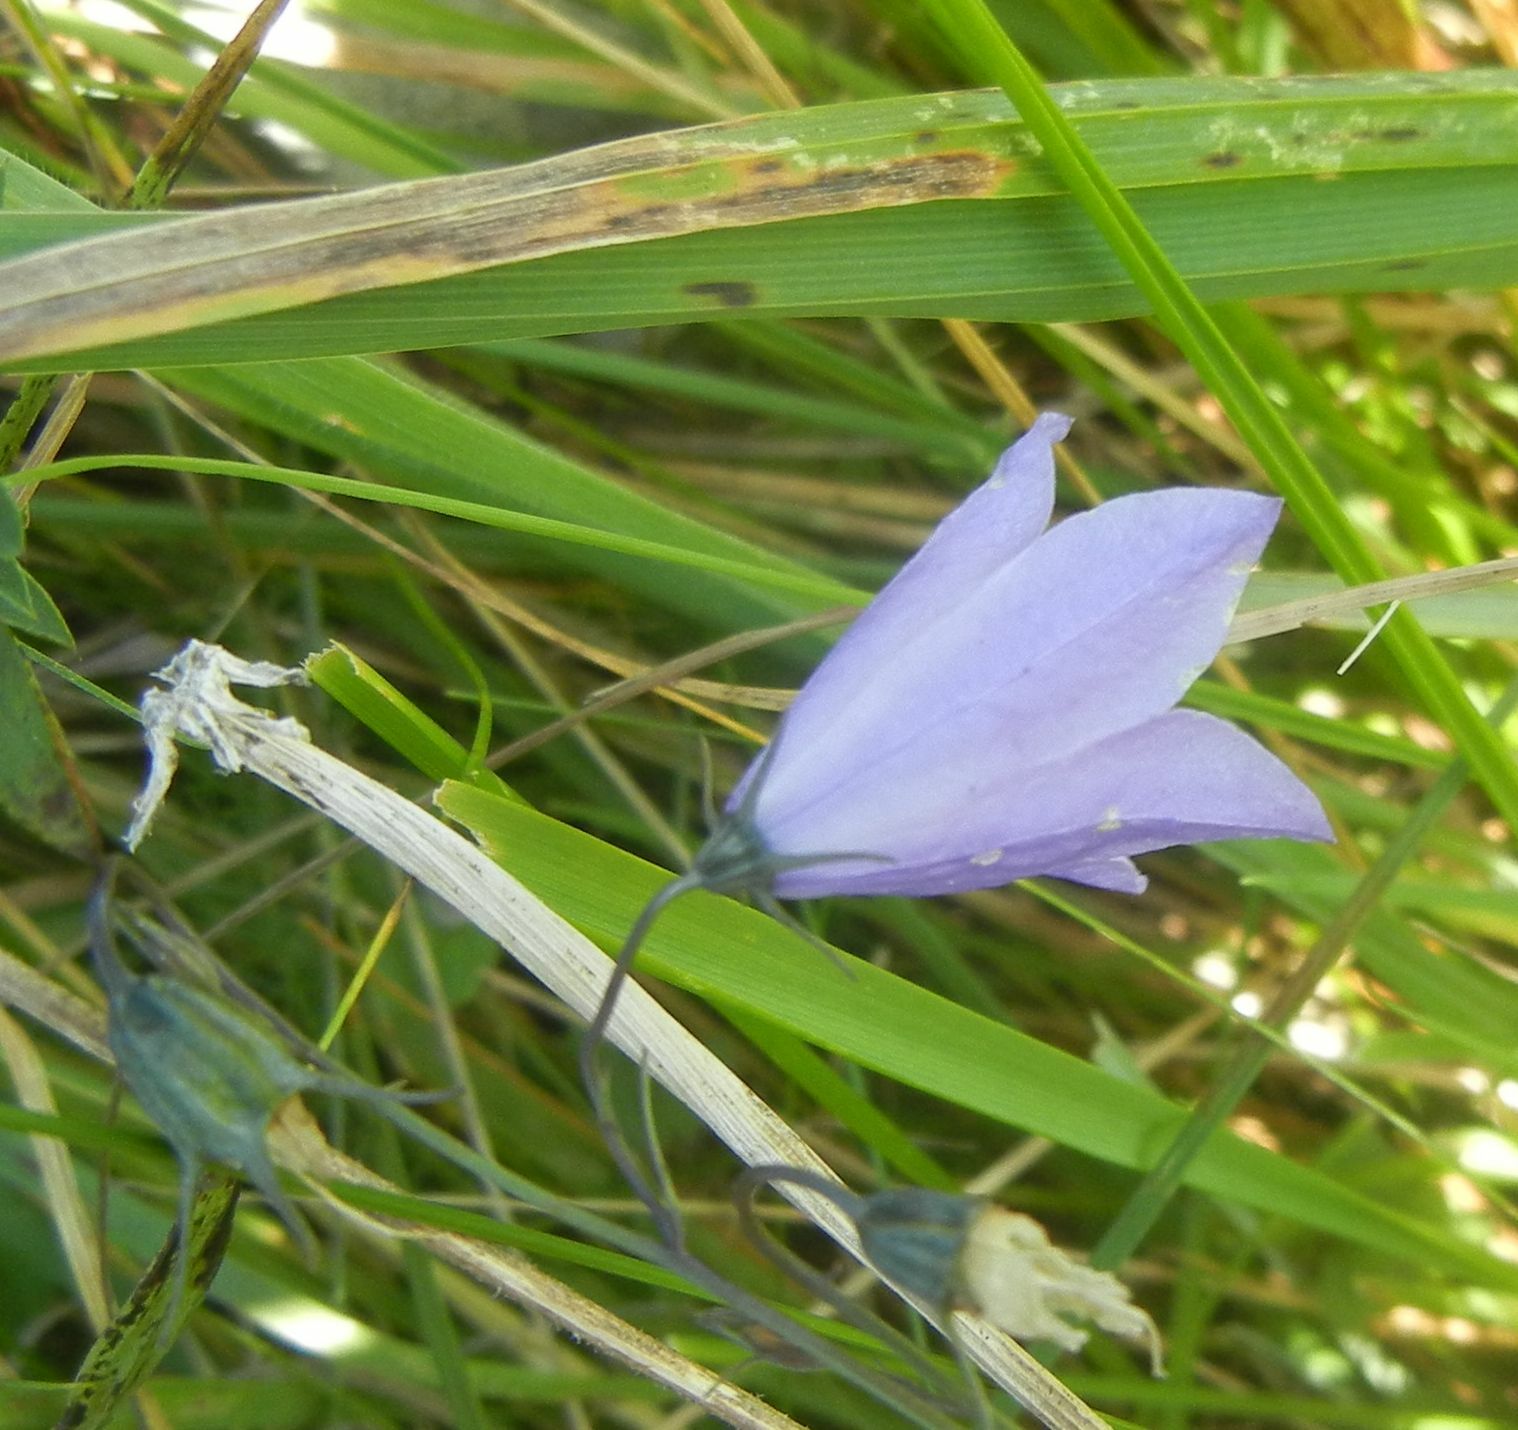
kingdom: Plantae
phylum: Tracheophyta
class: Magnoliopsida
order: Asterales
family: Campanulaceae
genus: Campanula
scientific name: Campanula rotundifolia
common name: Harebell
